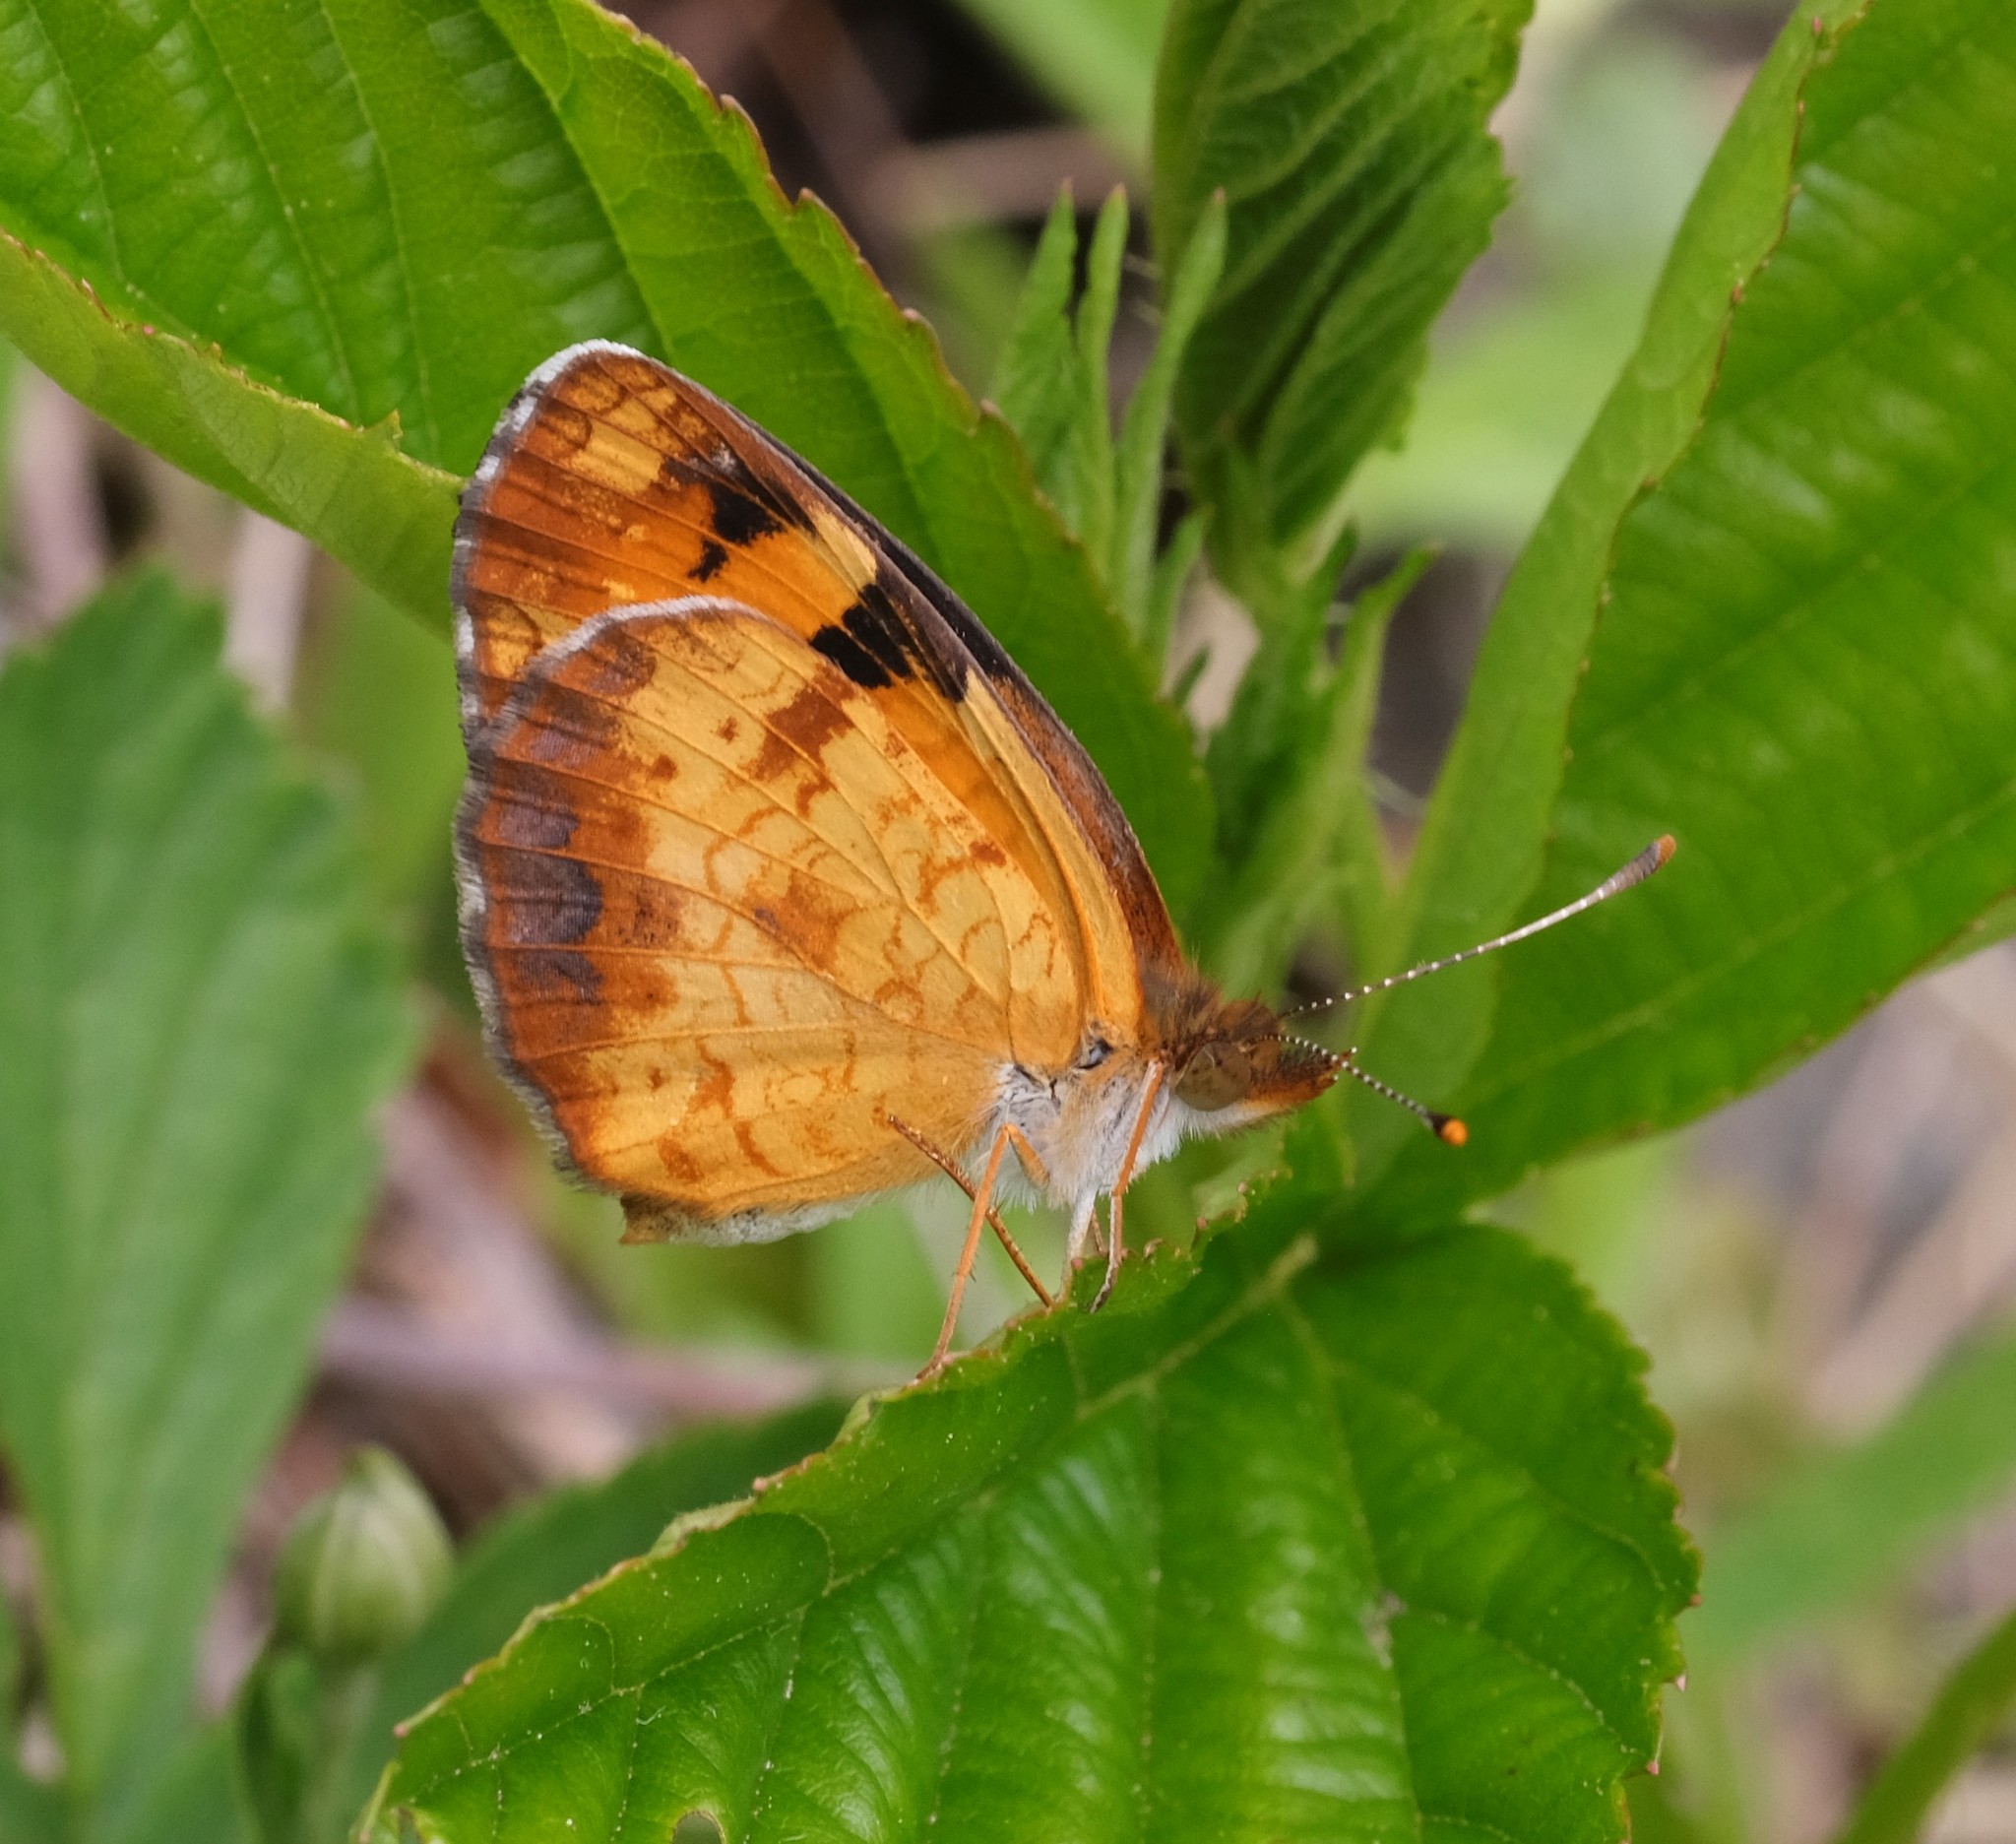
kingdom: Animalia
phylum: Arthropoda
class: Insecta
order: Lepidoptera
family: Nymphalidae
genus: Phyciodes
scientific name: Phyciodes tharos
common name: Pearl crescent
